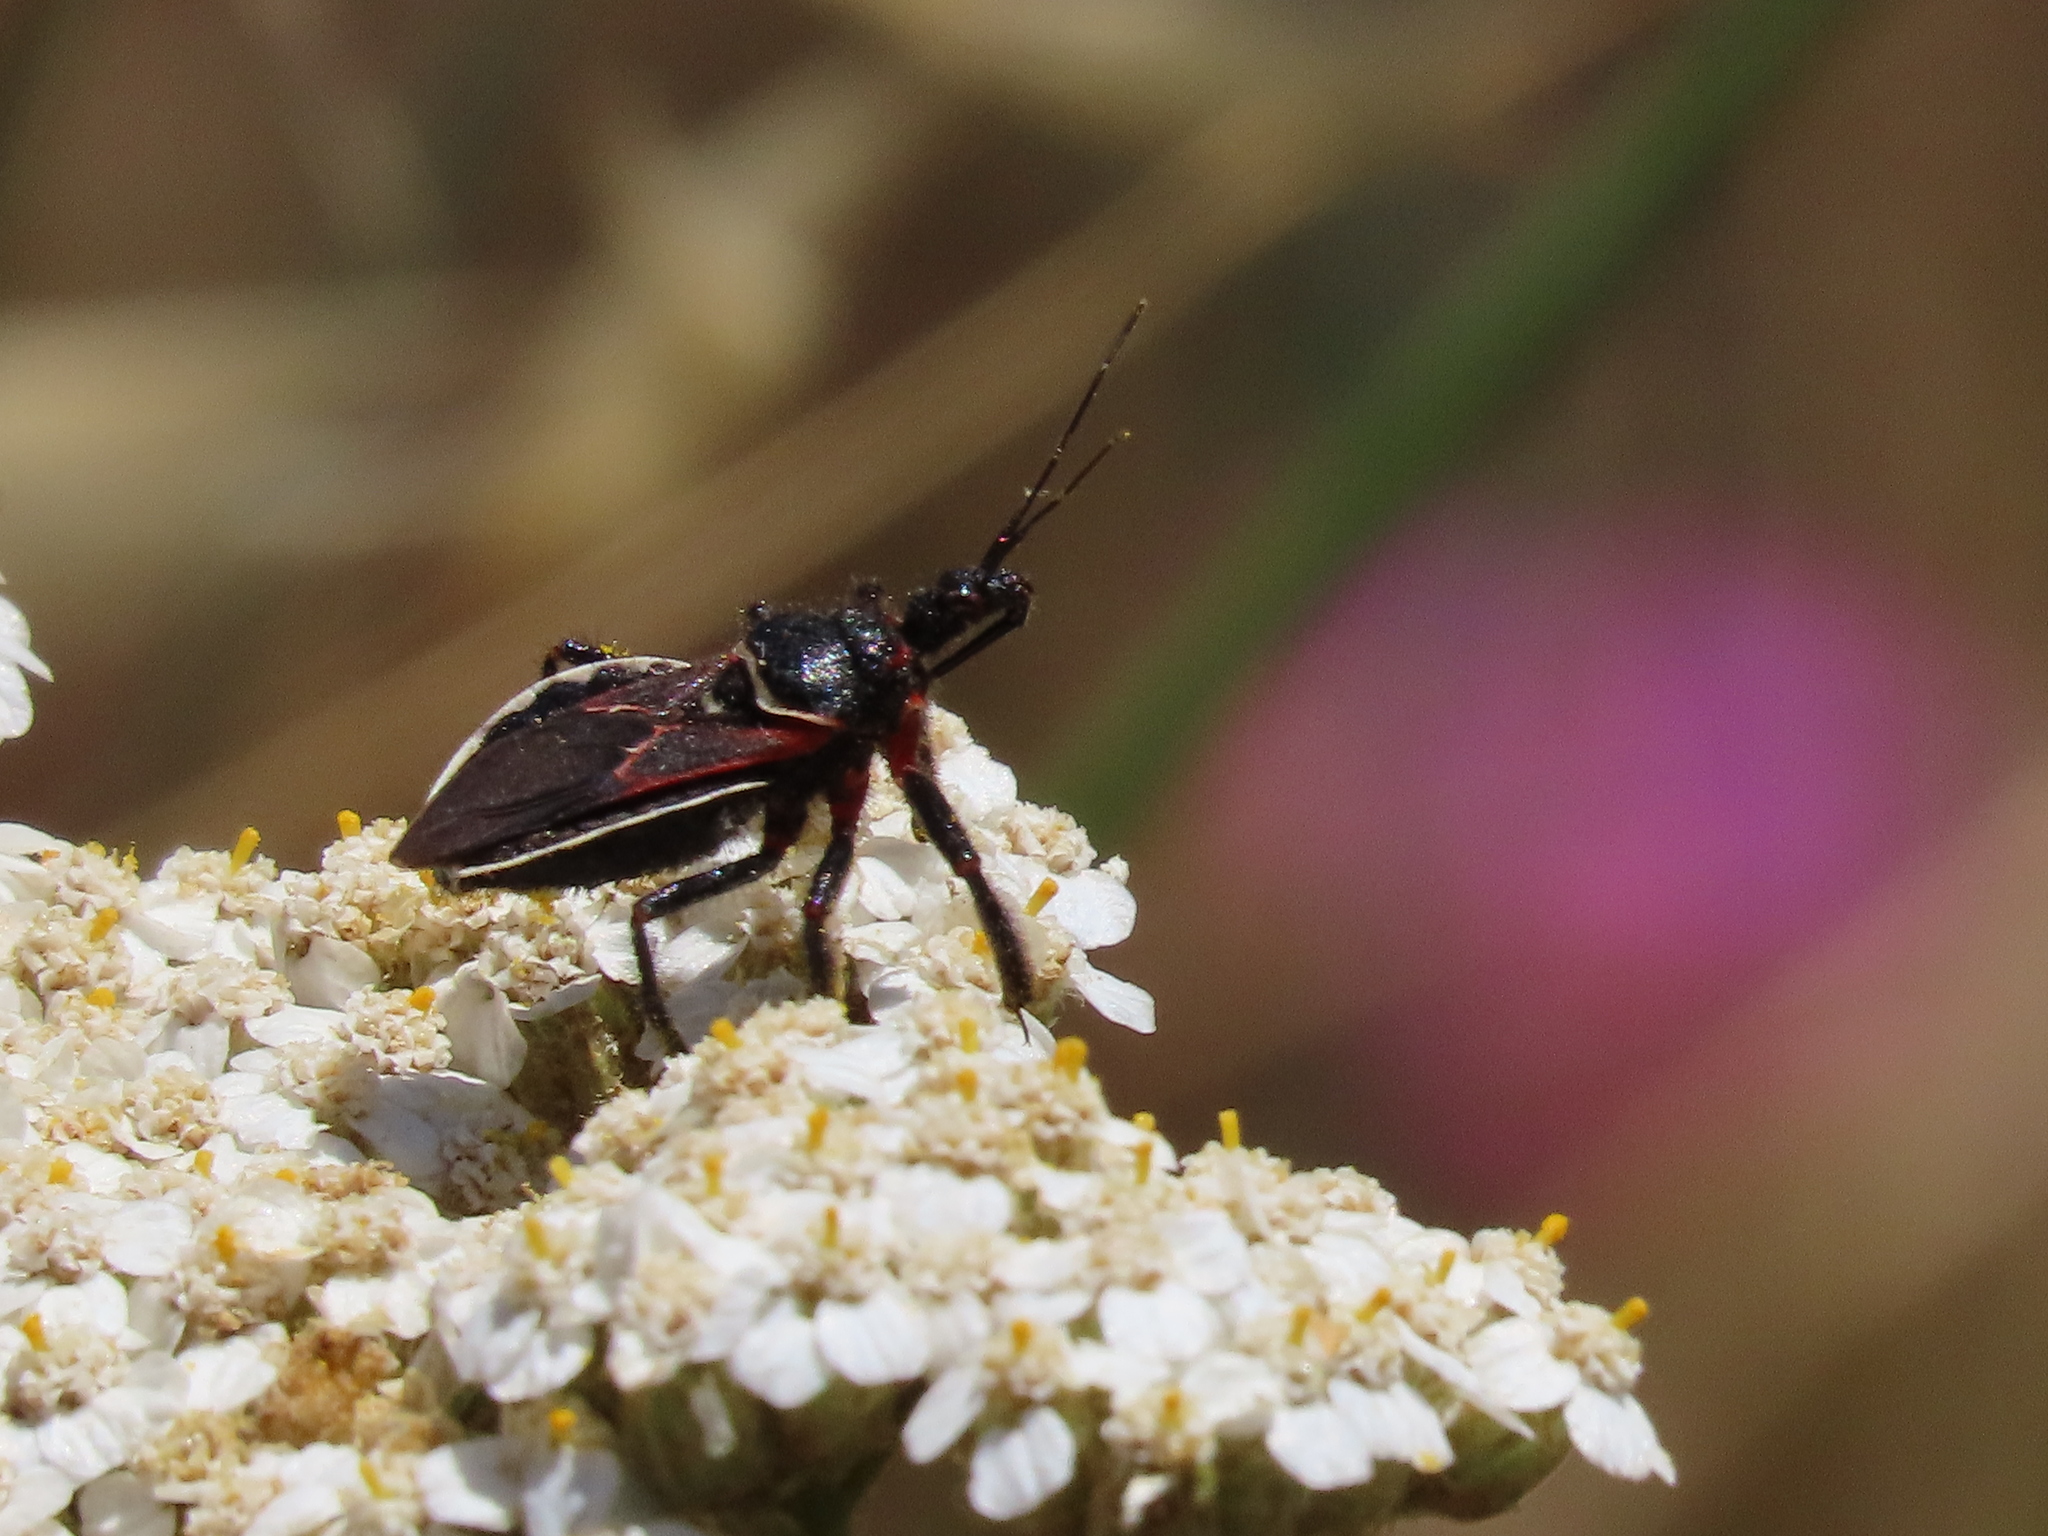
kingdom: Animalia
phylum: Arthropoda
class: Insecta
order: Hemiptera
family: Reduviidae
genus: Apiomerus
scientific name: Apiomerus californicus
